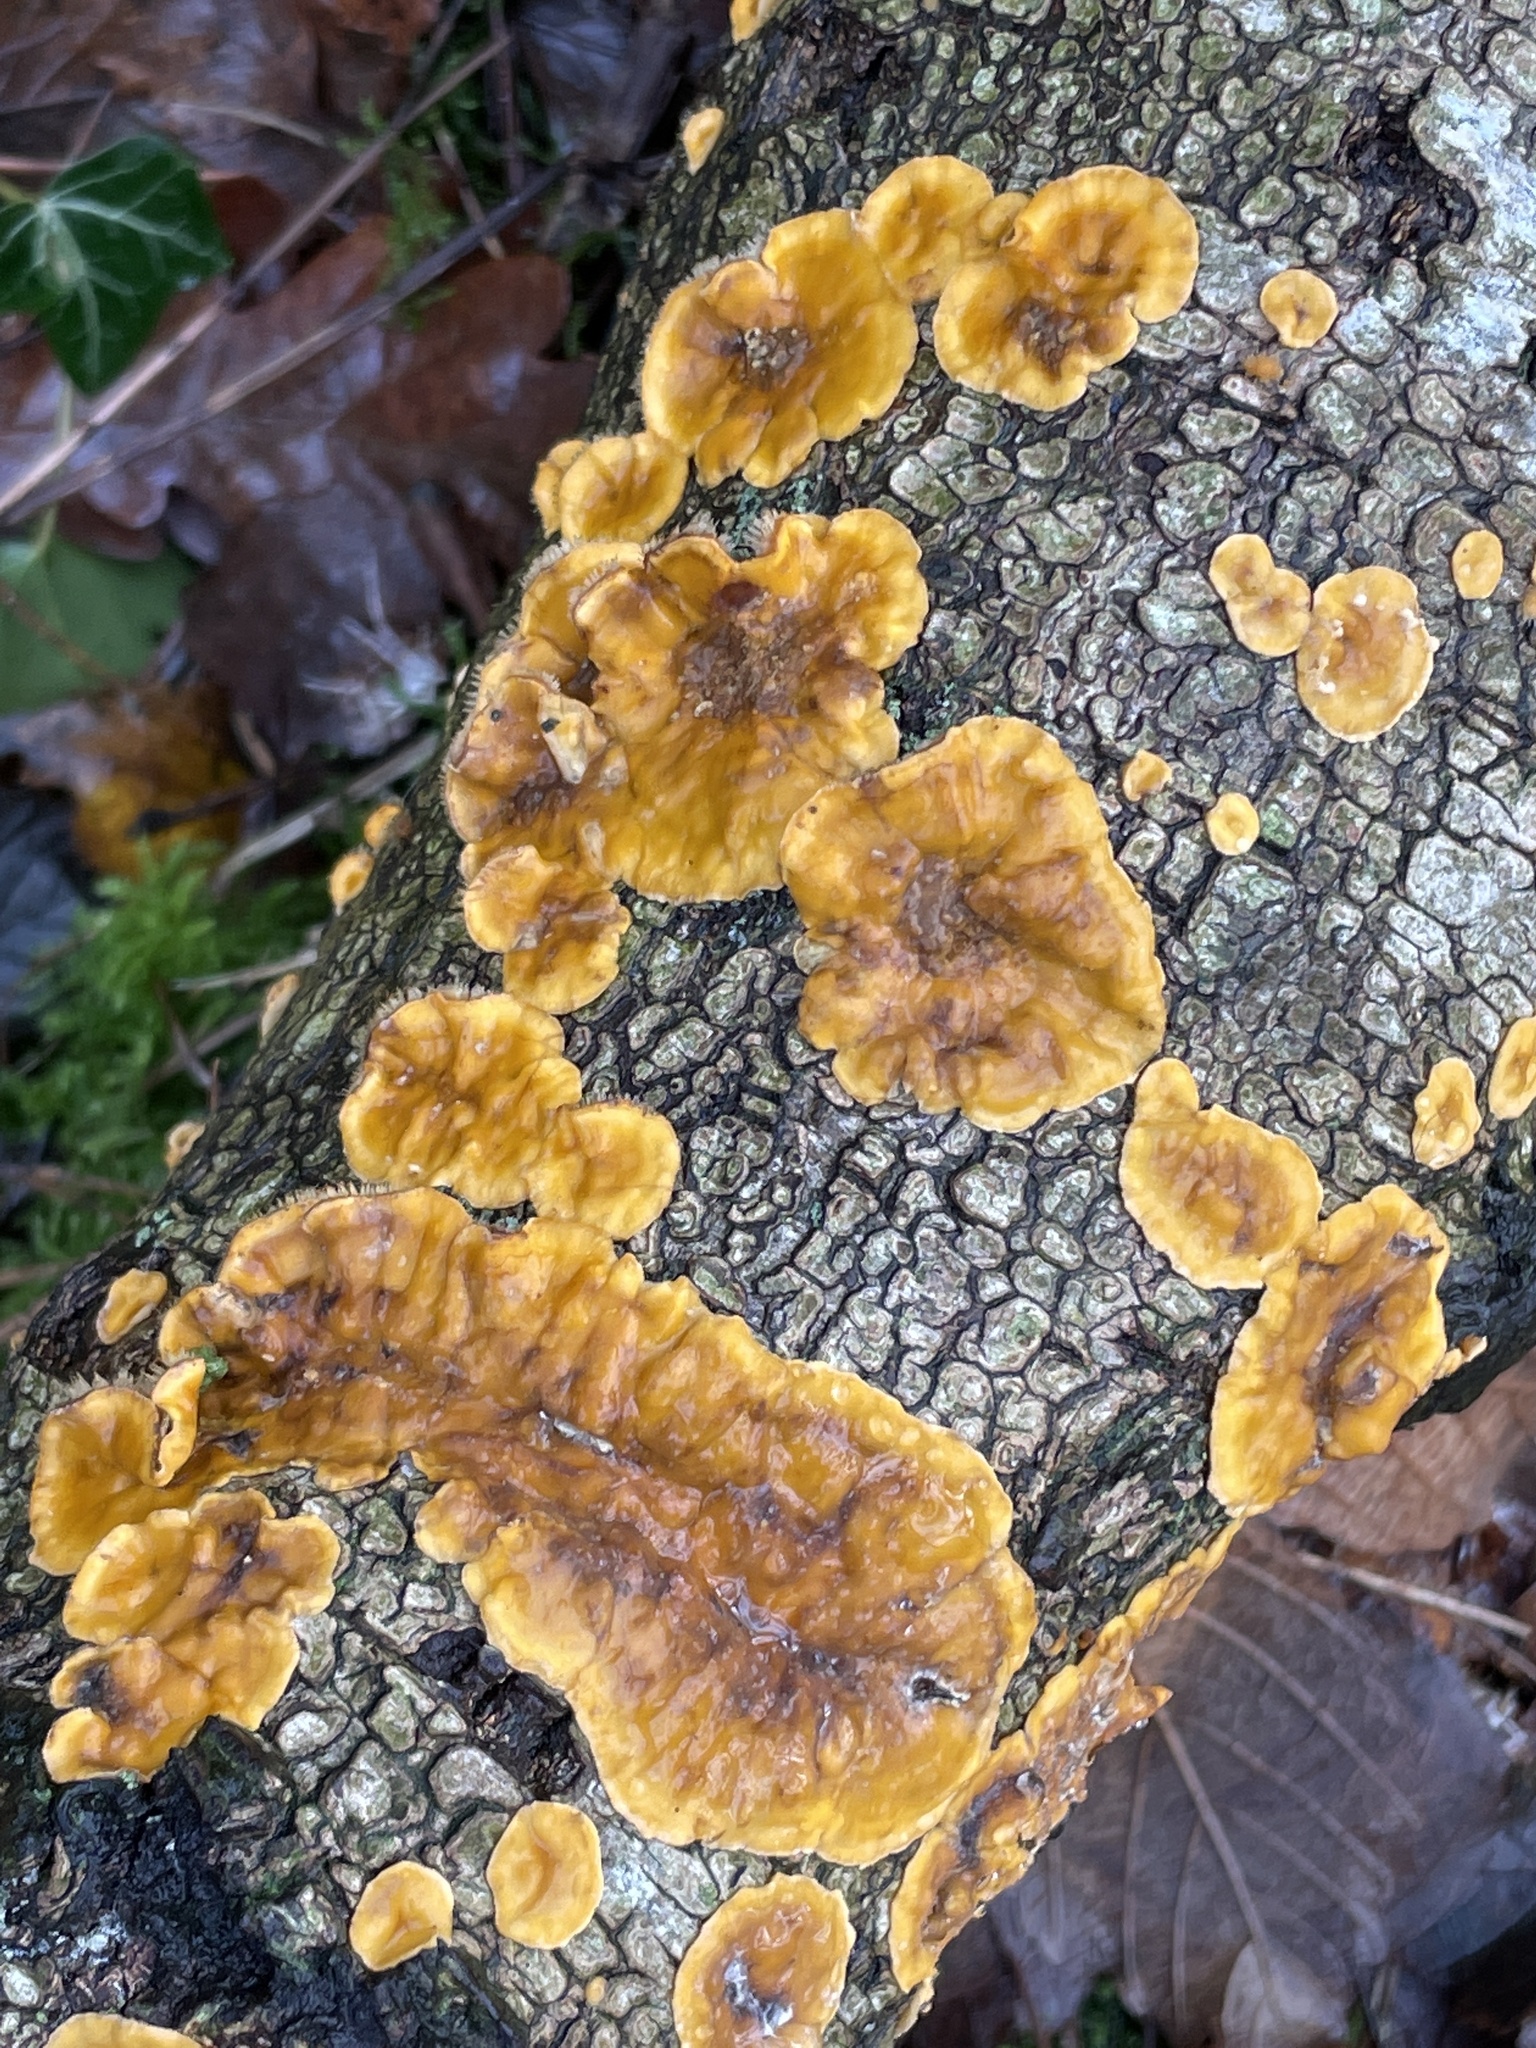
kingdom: Fungi
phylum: Basidiomycota
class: Agaricomycetes
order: Russulales
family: Stereaceae
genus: Stereum
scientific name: Stereum hirsutum
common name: Hairy curtain crust
